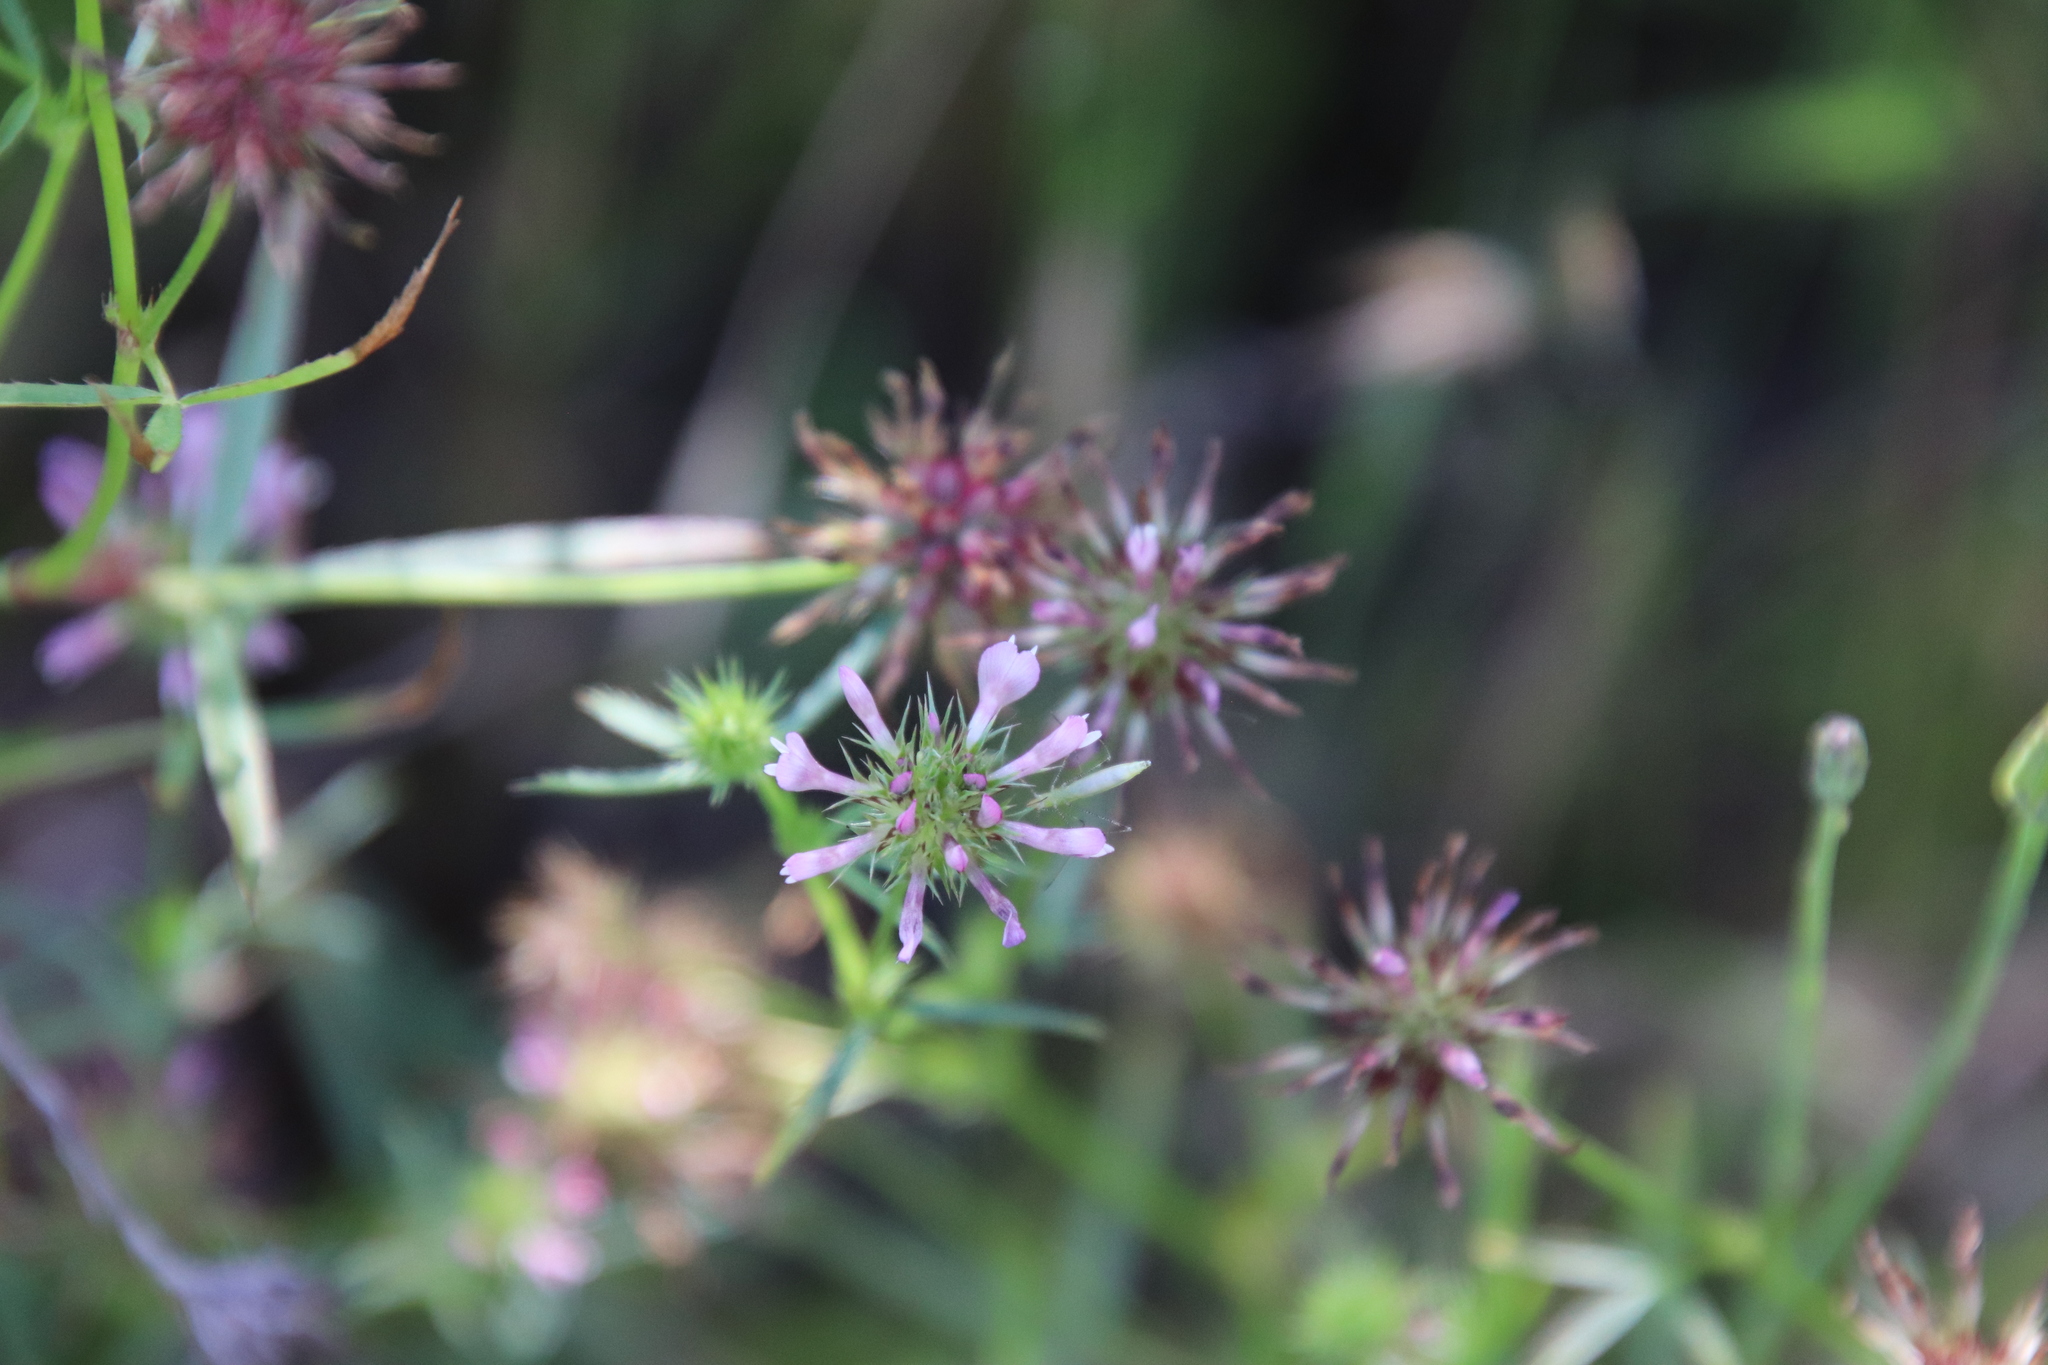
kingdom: Plantae
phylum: Tracheophyta
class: Magnoliopsida
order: Fabales
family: Fabaceae
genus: Trifolium
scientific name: Trifolium willdenovii
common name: Tomcat clover
